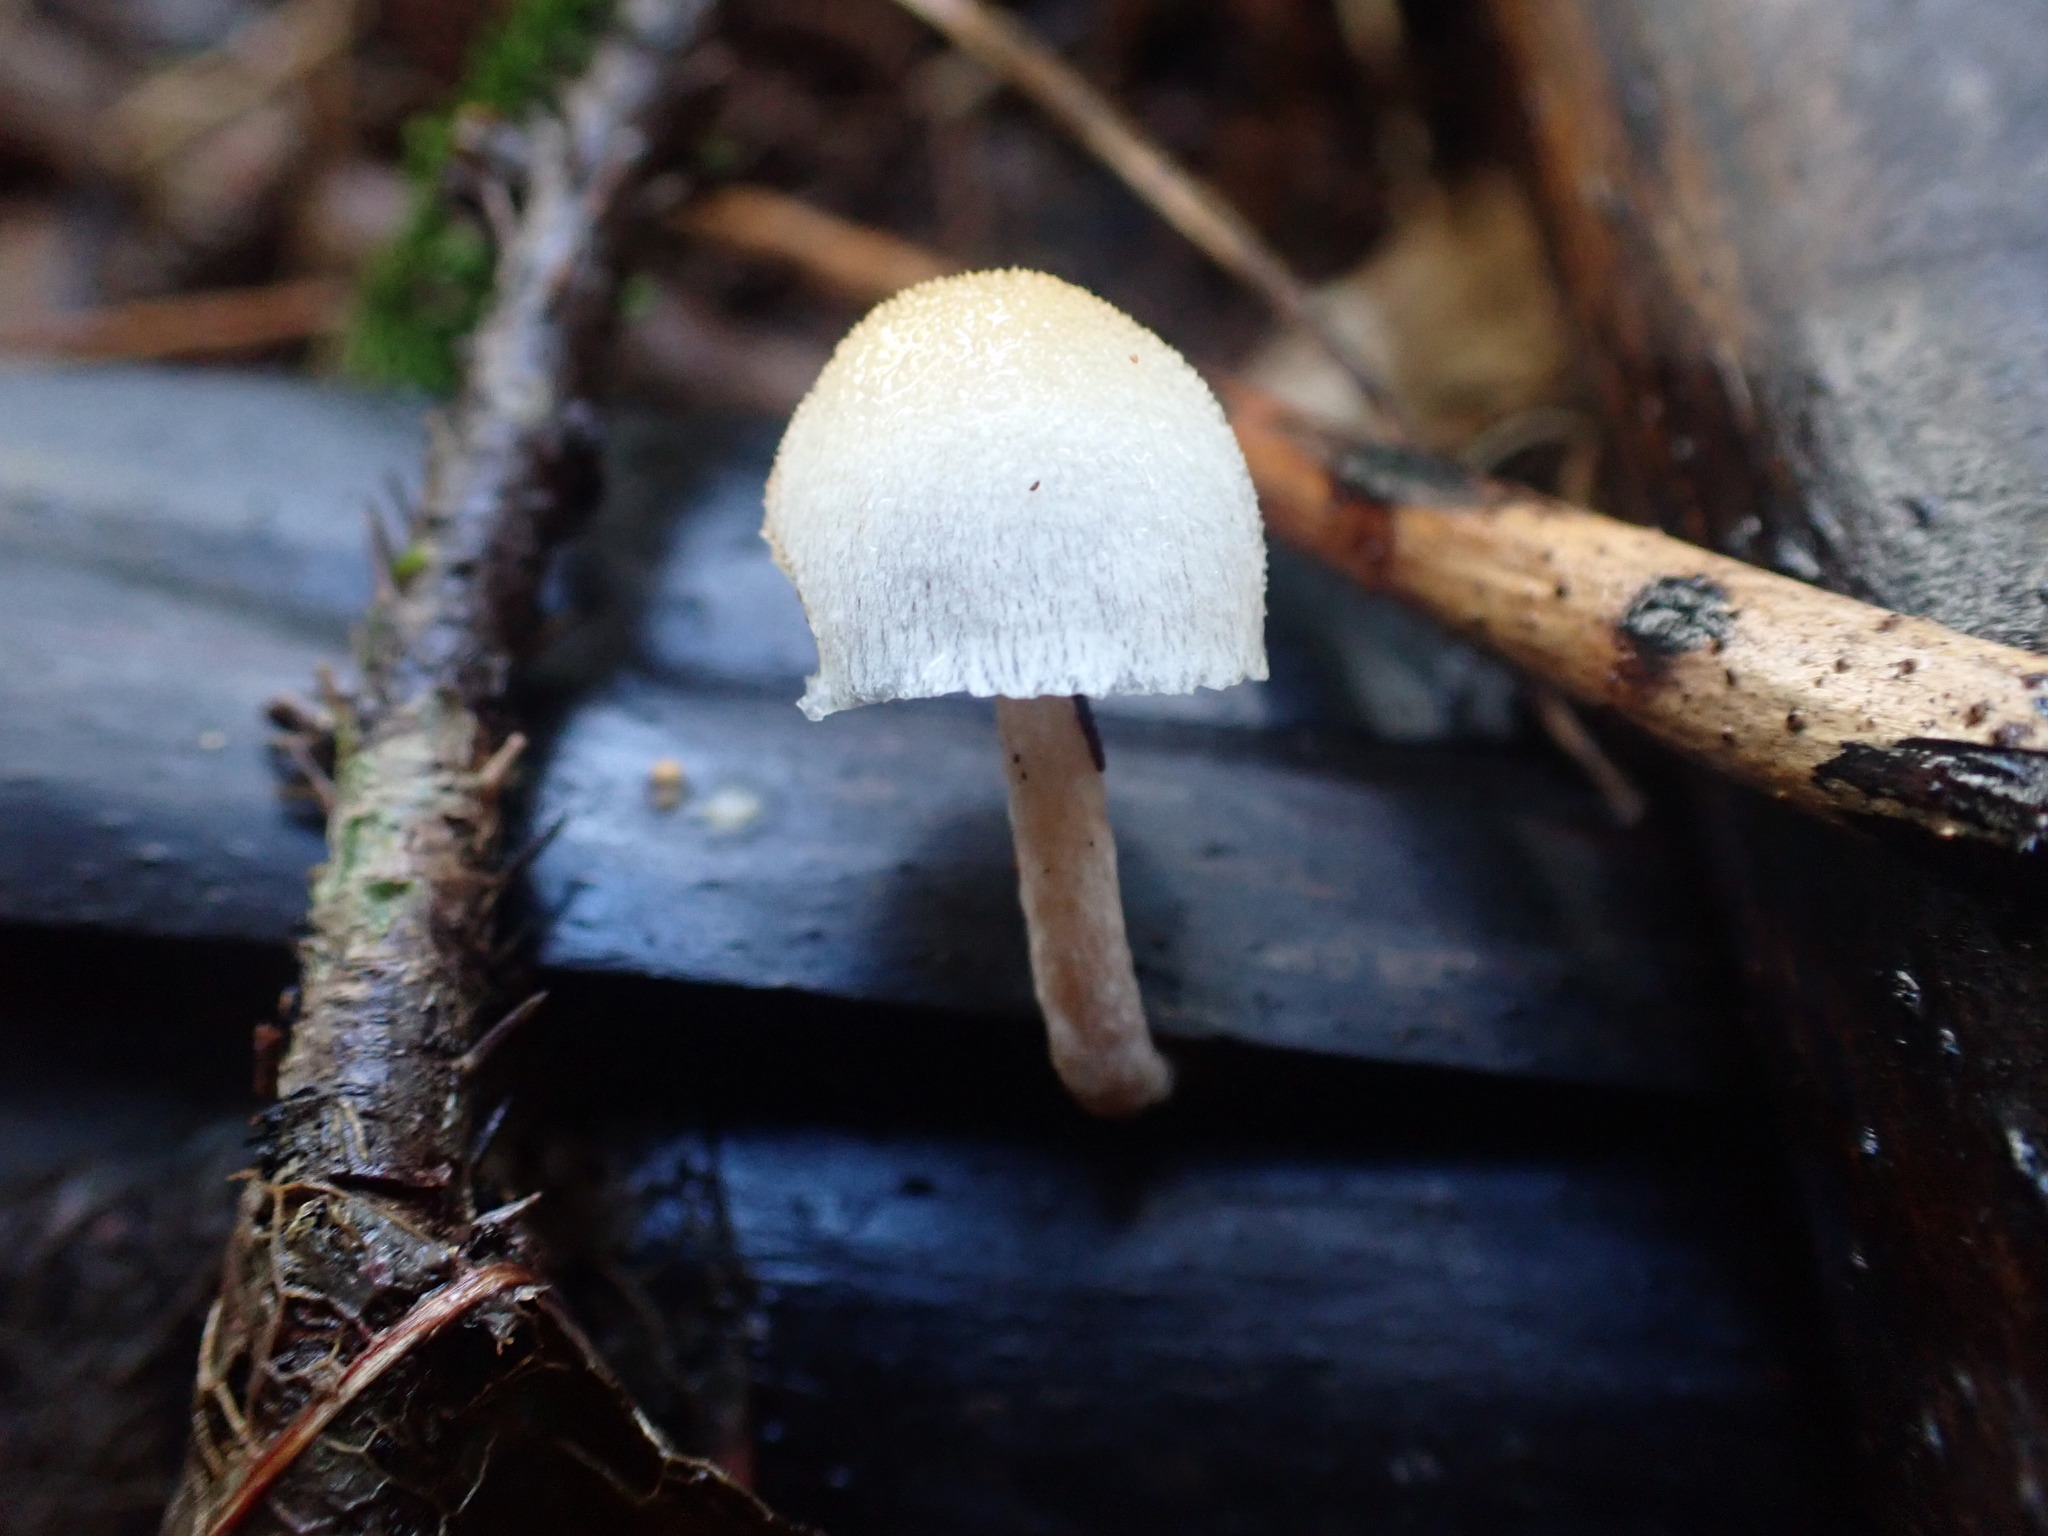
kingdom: Fungi
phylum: Basidiomycota
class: Agaricomycetes
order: Agaricales
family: Bolbitiaceae
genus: Tympanella
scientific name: Tympanella galanthina
